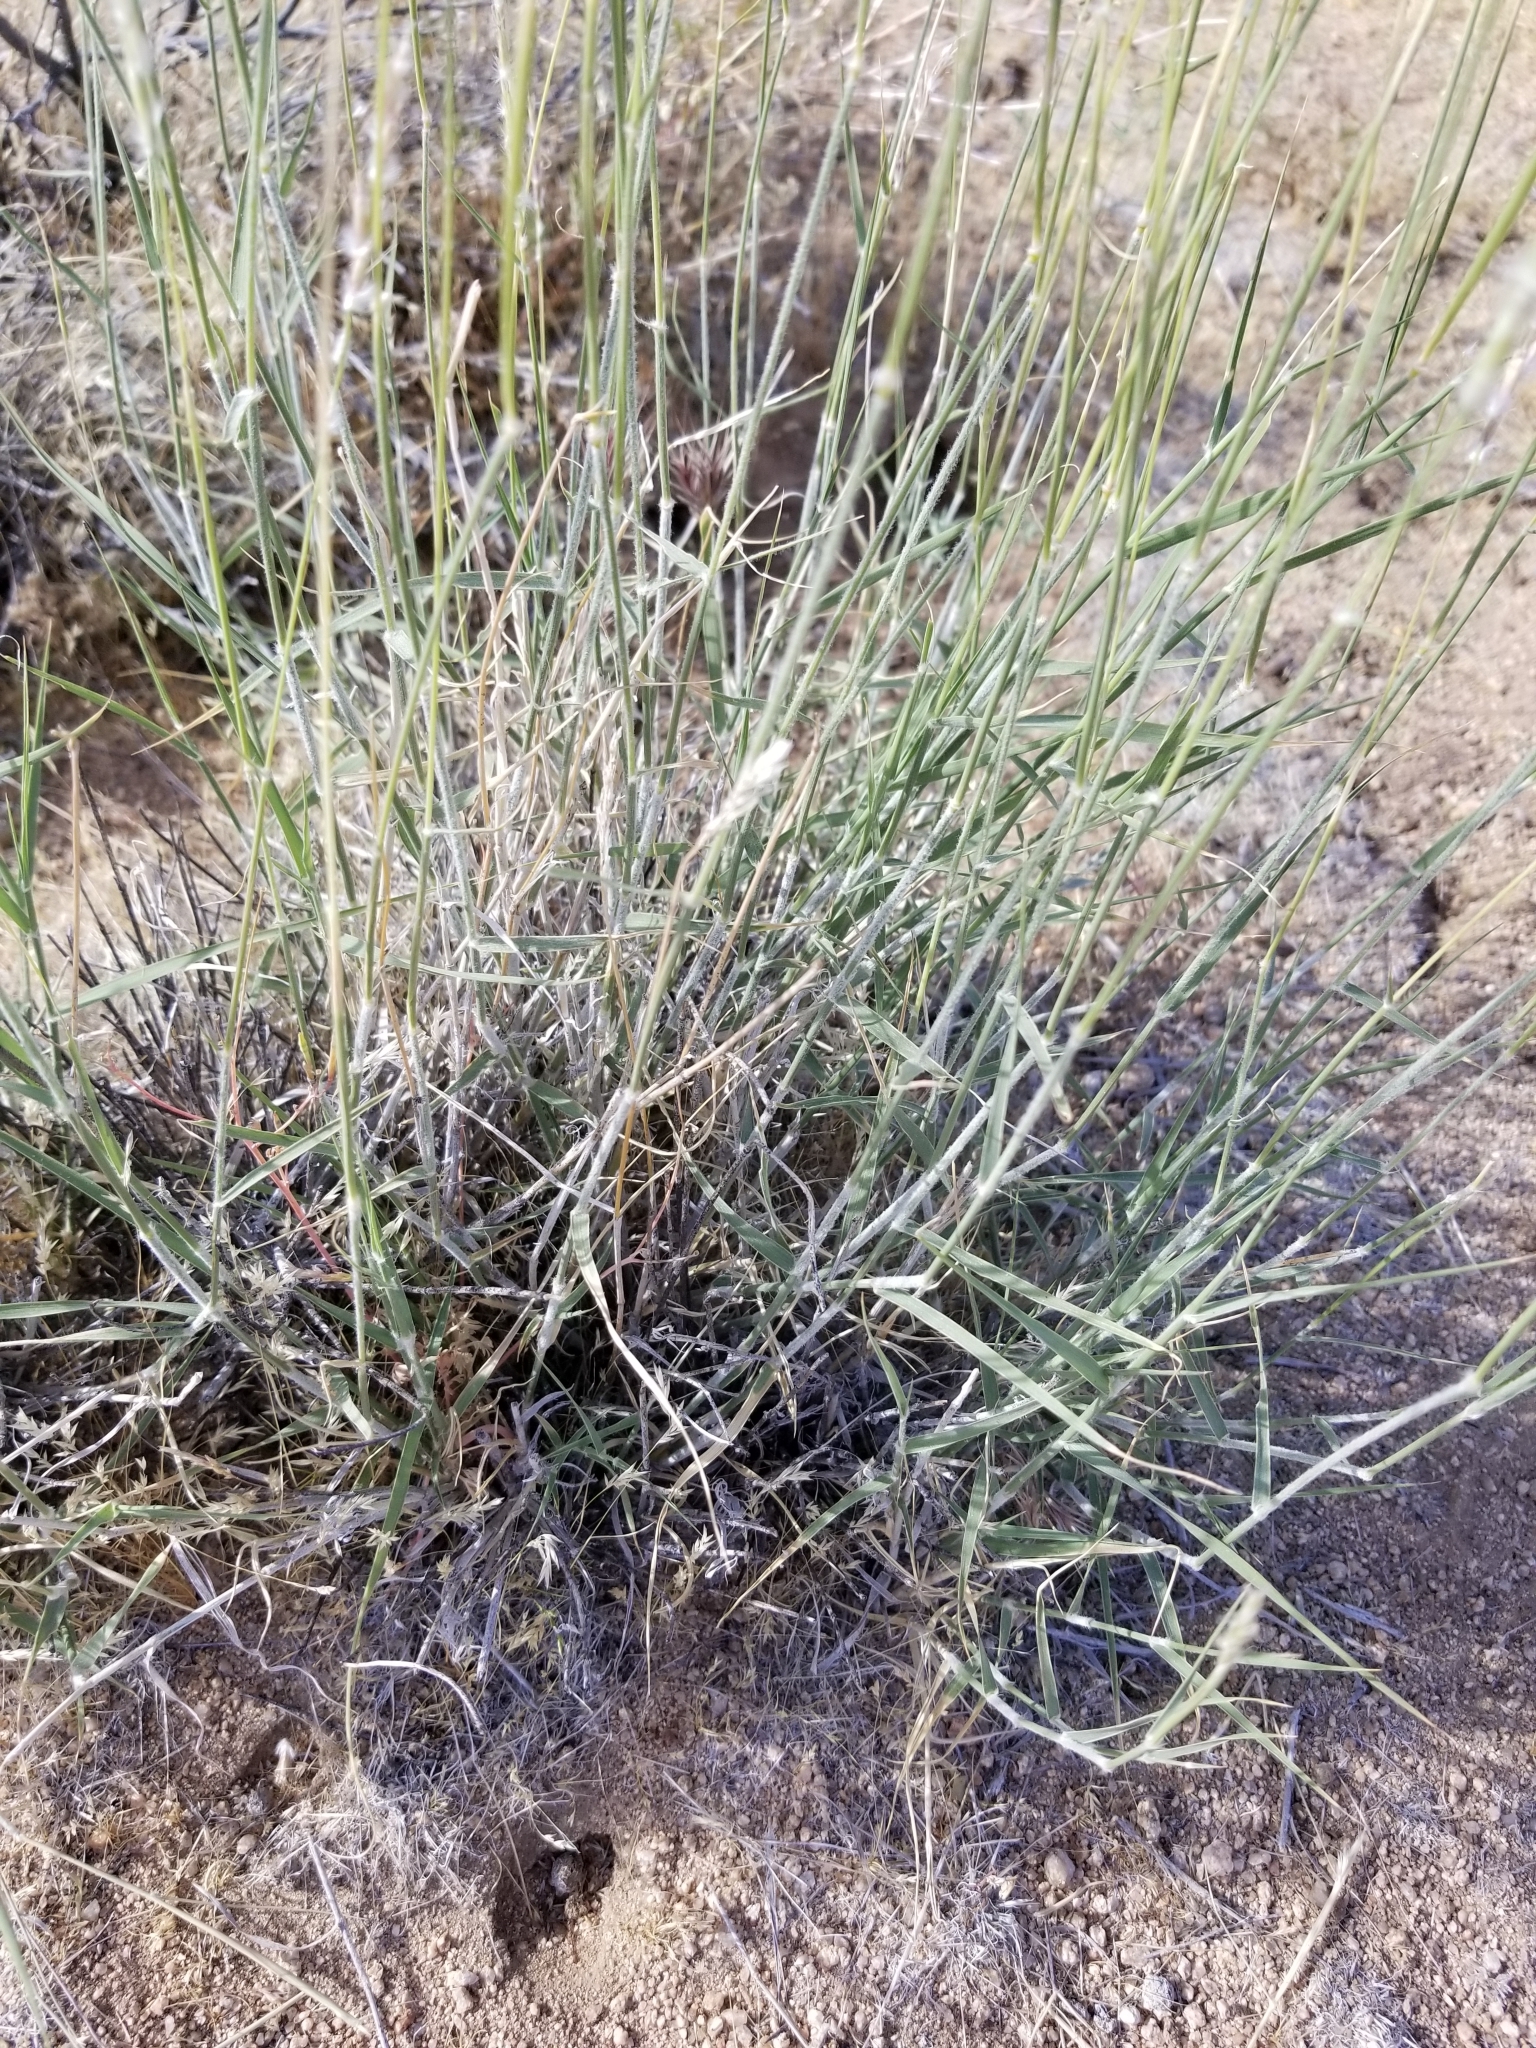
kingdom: Plantae
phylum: Tracheophyta
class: Liliopsida
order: Poales
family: Poaceae
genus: Hilaria
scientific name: Hilaria rigida
